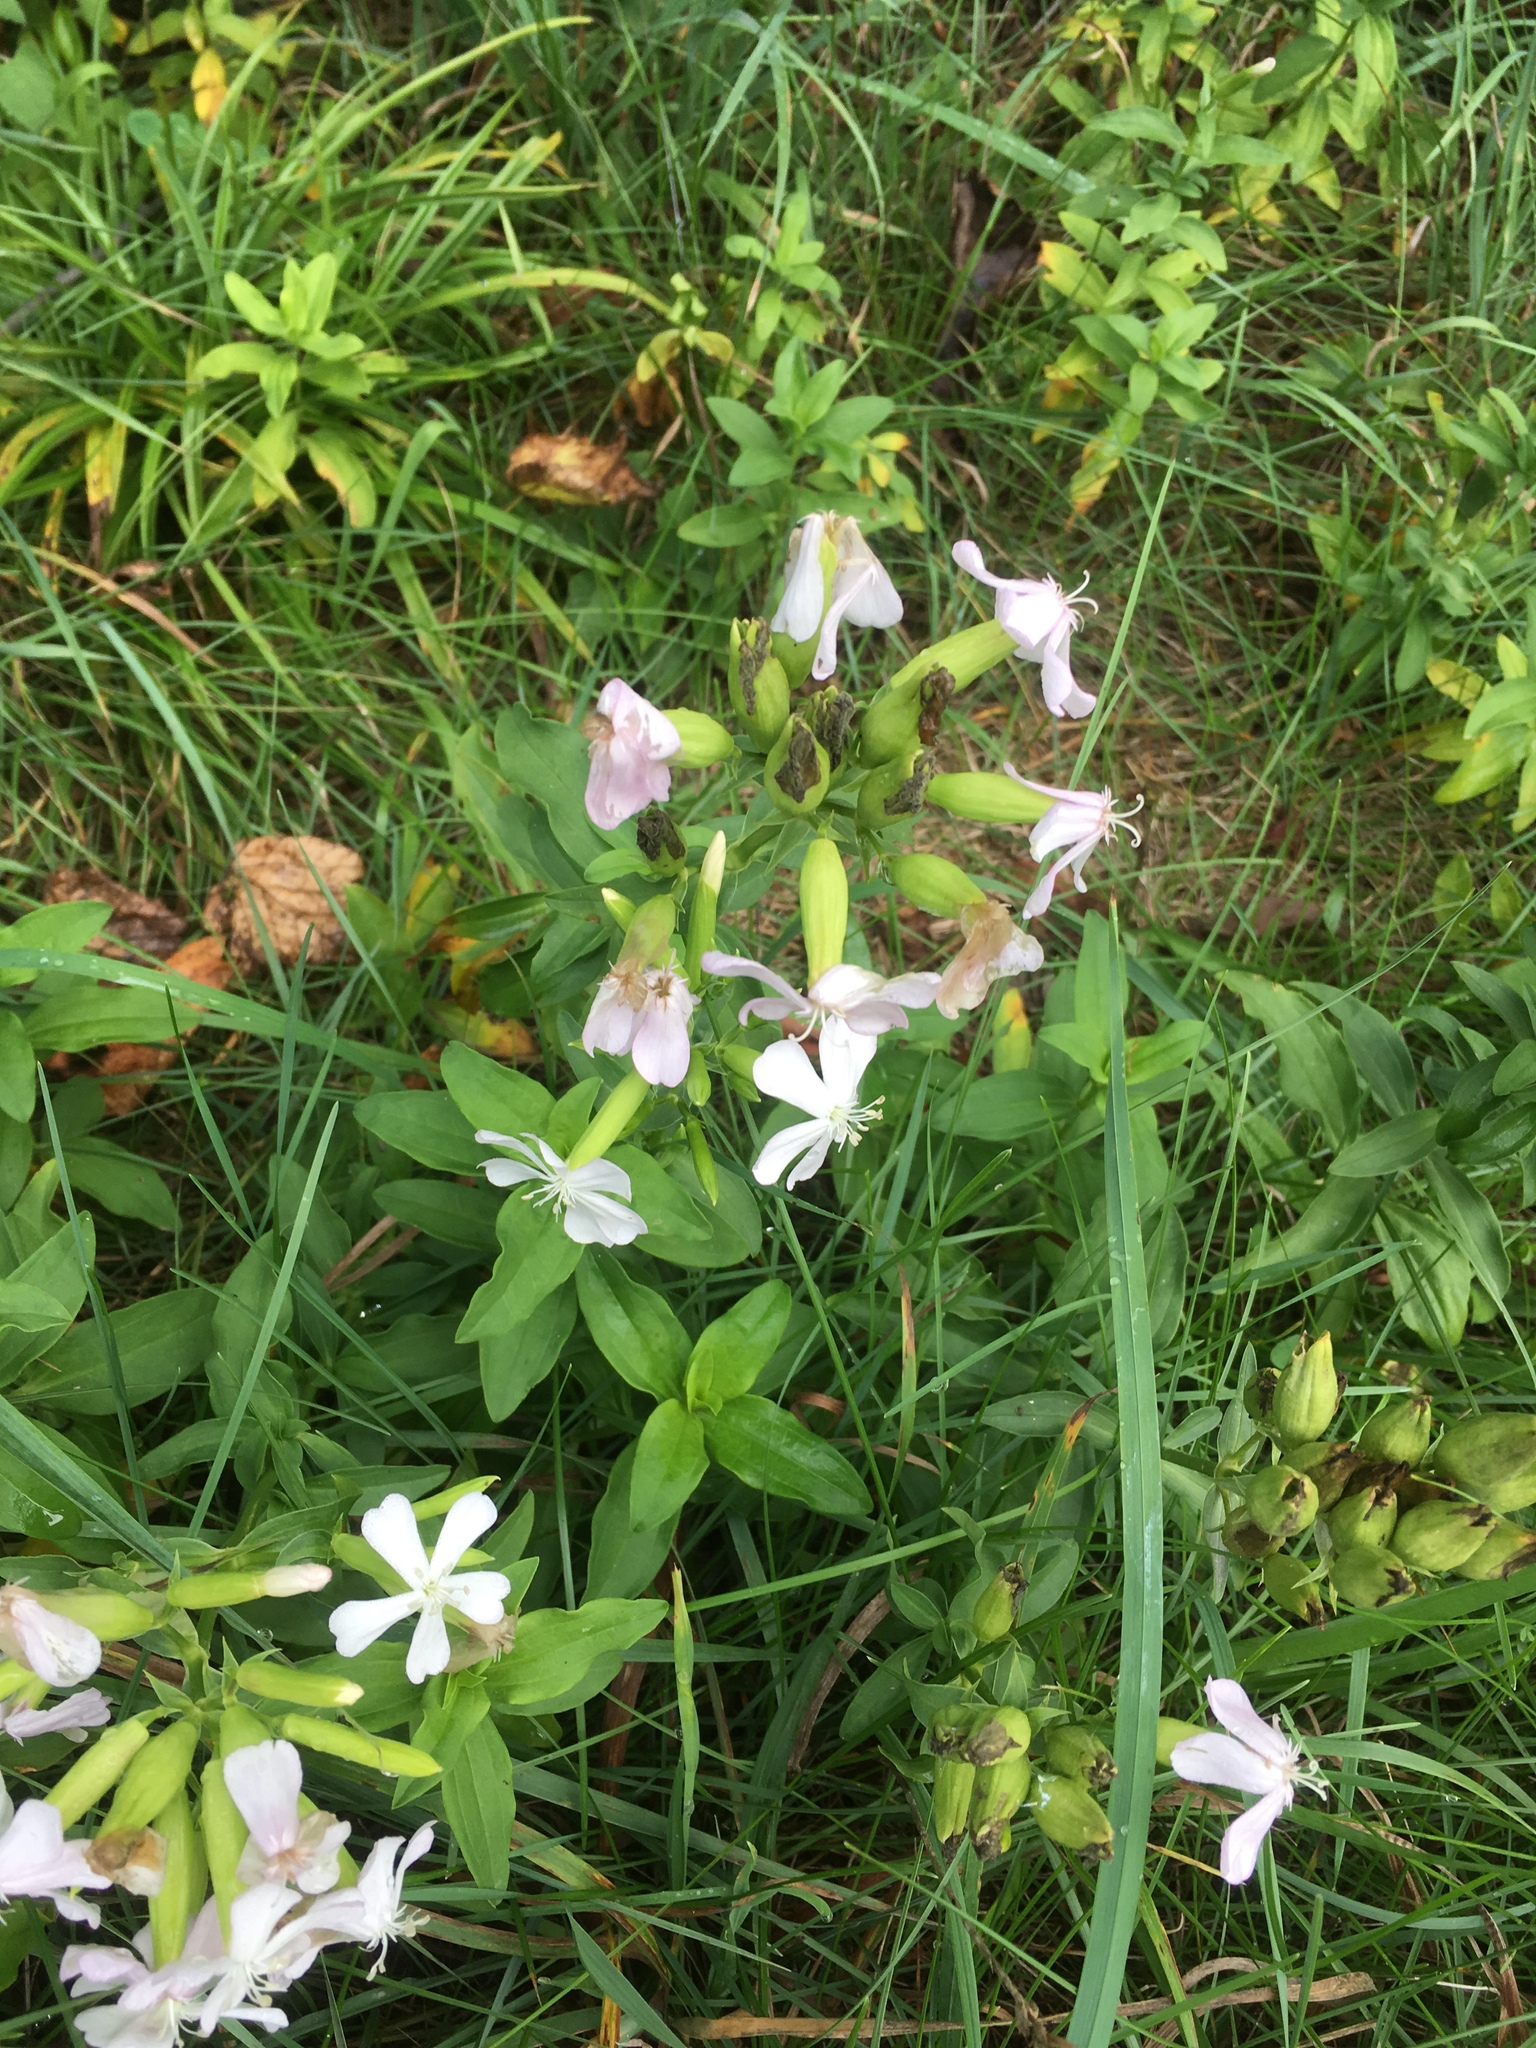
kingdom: Plantae
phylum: Tracheophyta
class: Magnoliopsida
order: Caryophyllales
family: Caryophyllaceae
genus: Saponaria
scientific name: Saponaria officinalis
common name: Soapwort
